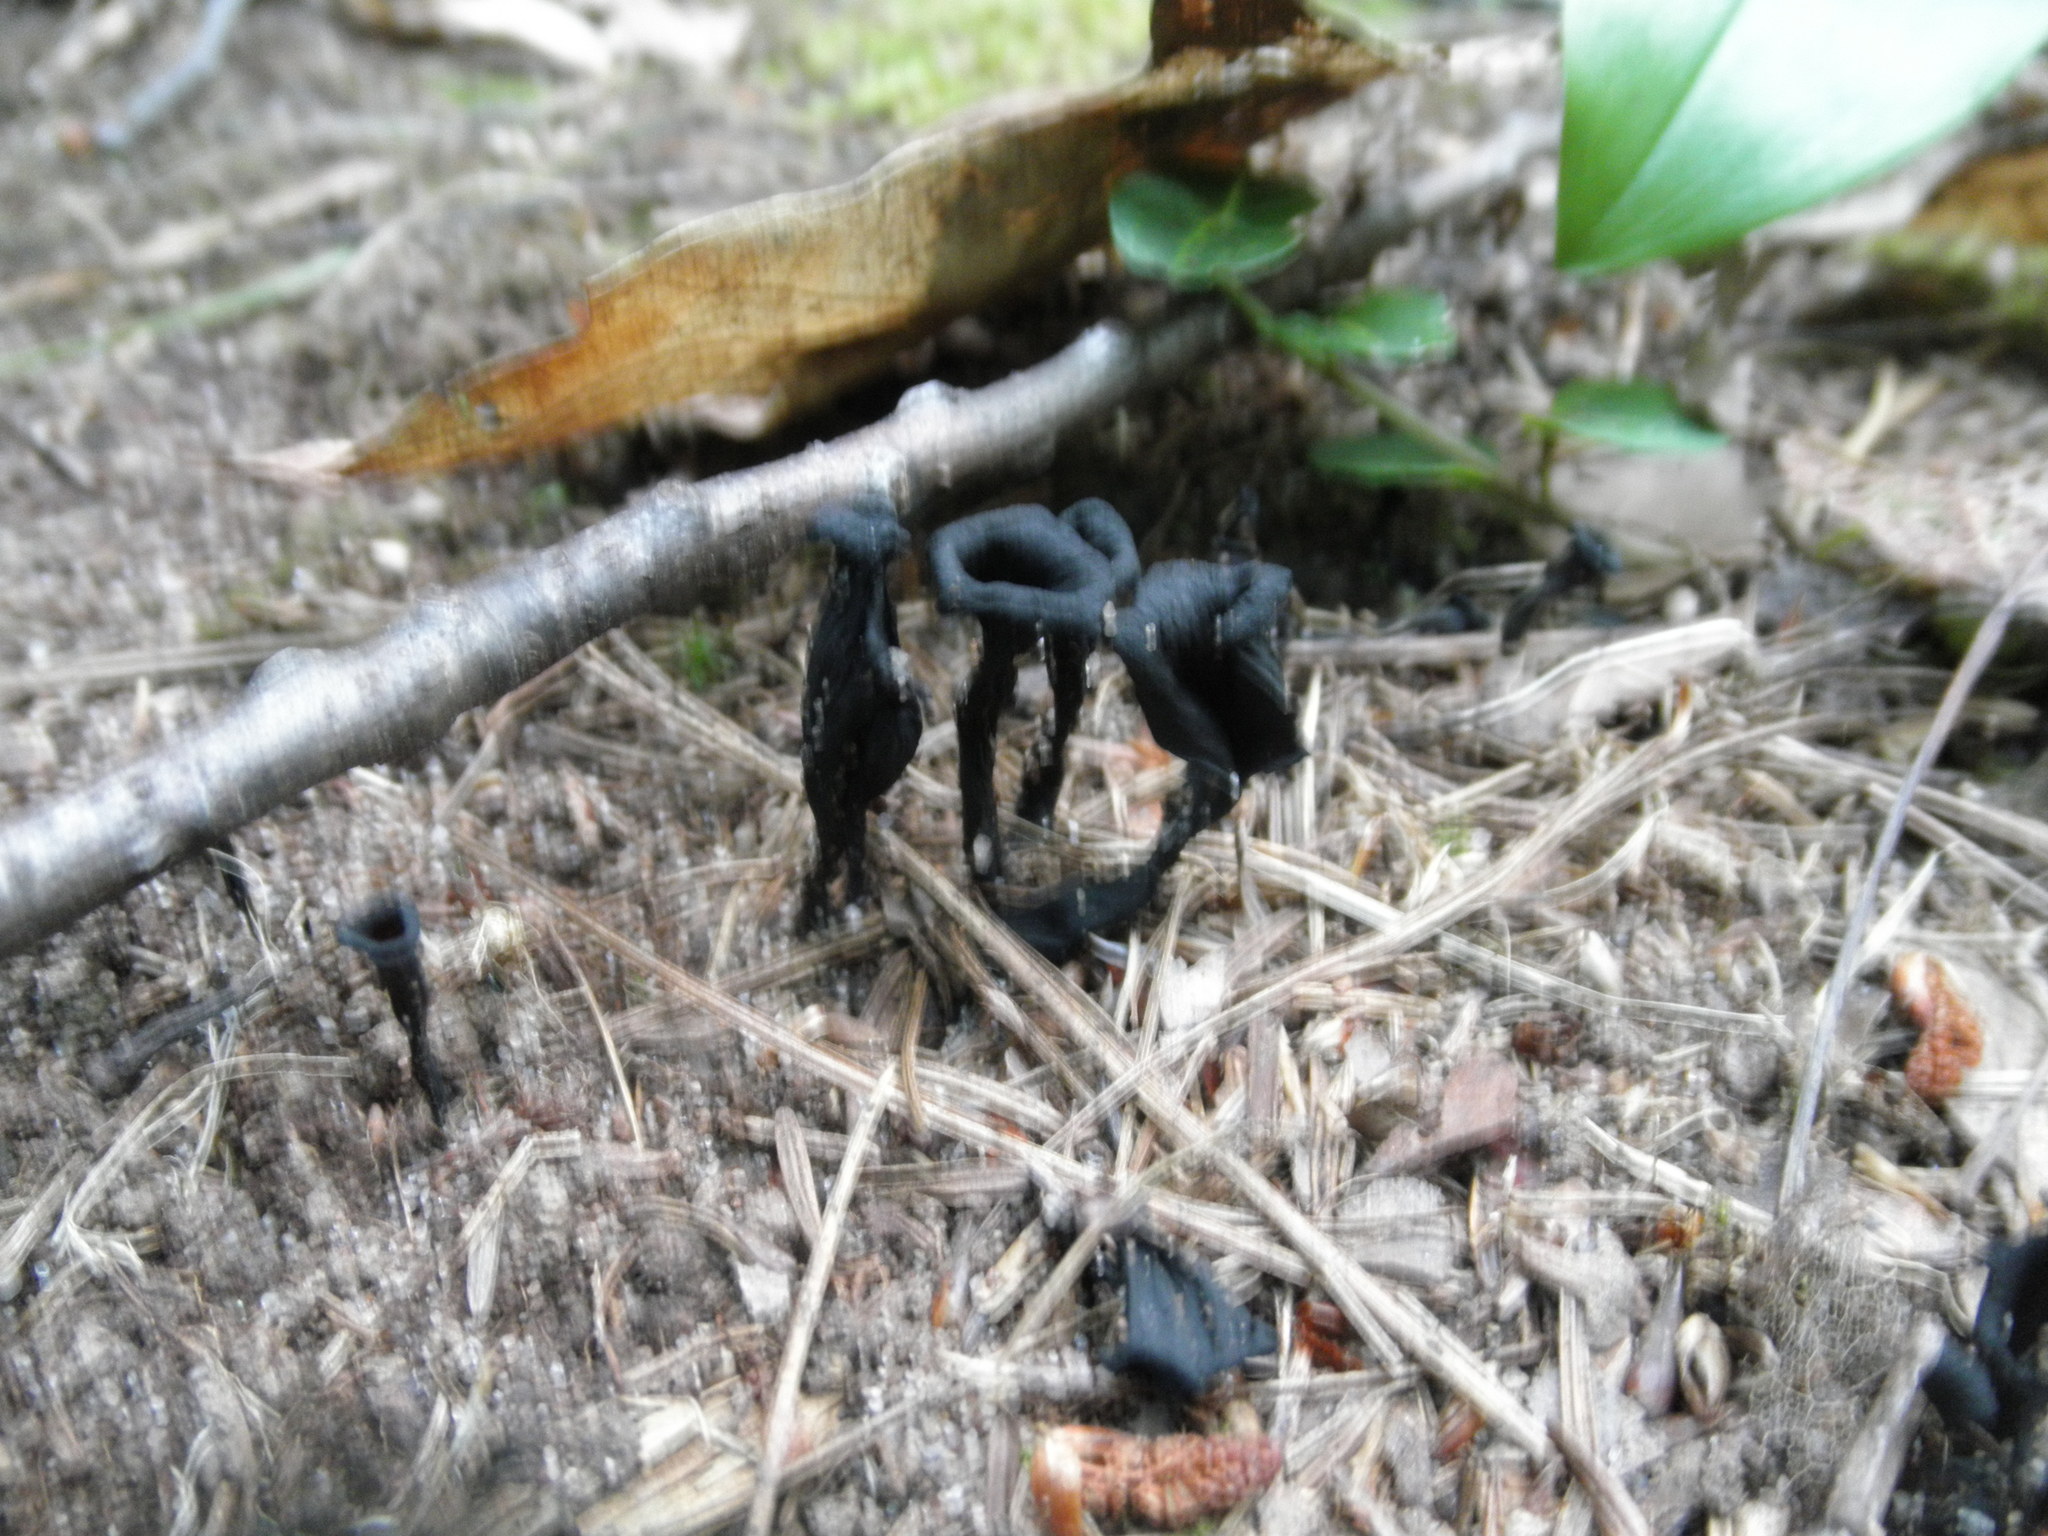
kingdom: Fungi
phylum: Basidiomycota
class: Agaricomycetes
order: Cantharellales
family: Hydnaceae
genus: Craterellus
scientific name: Craterellus cornucopioides
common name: Horn of plenty
